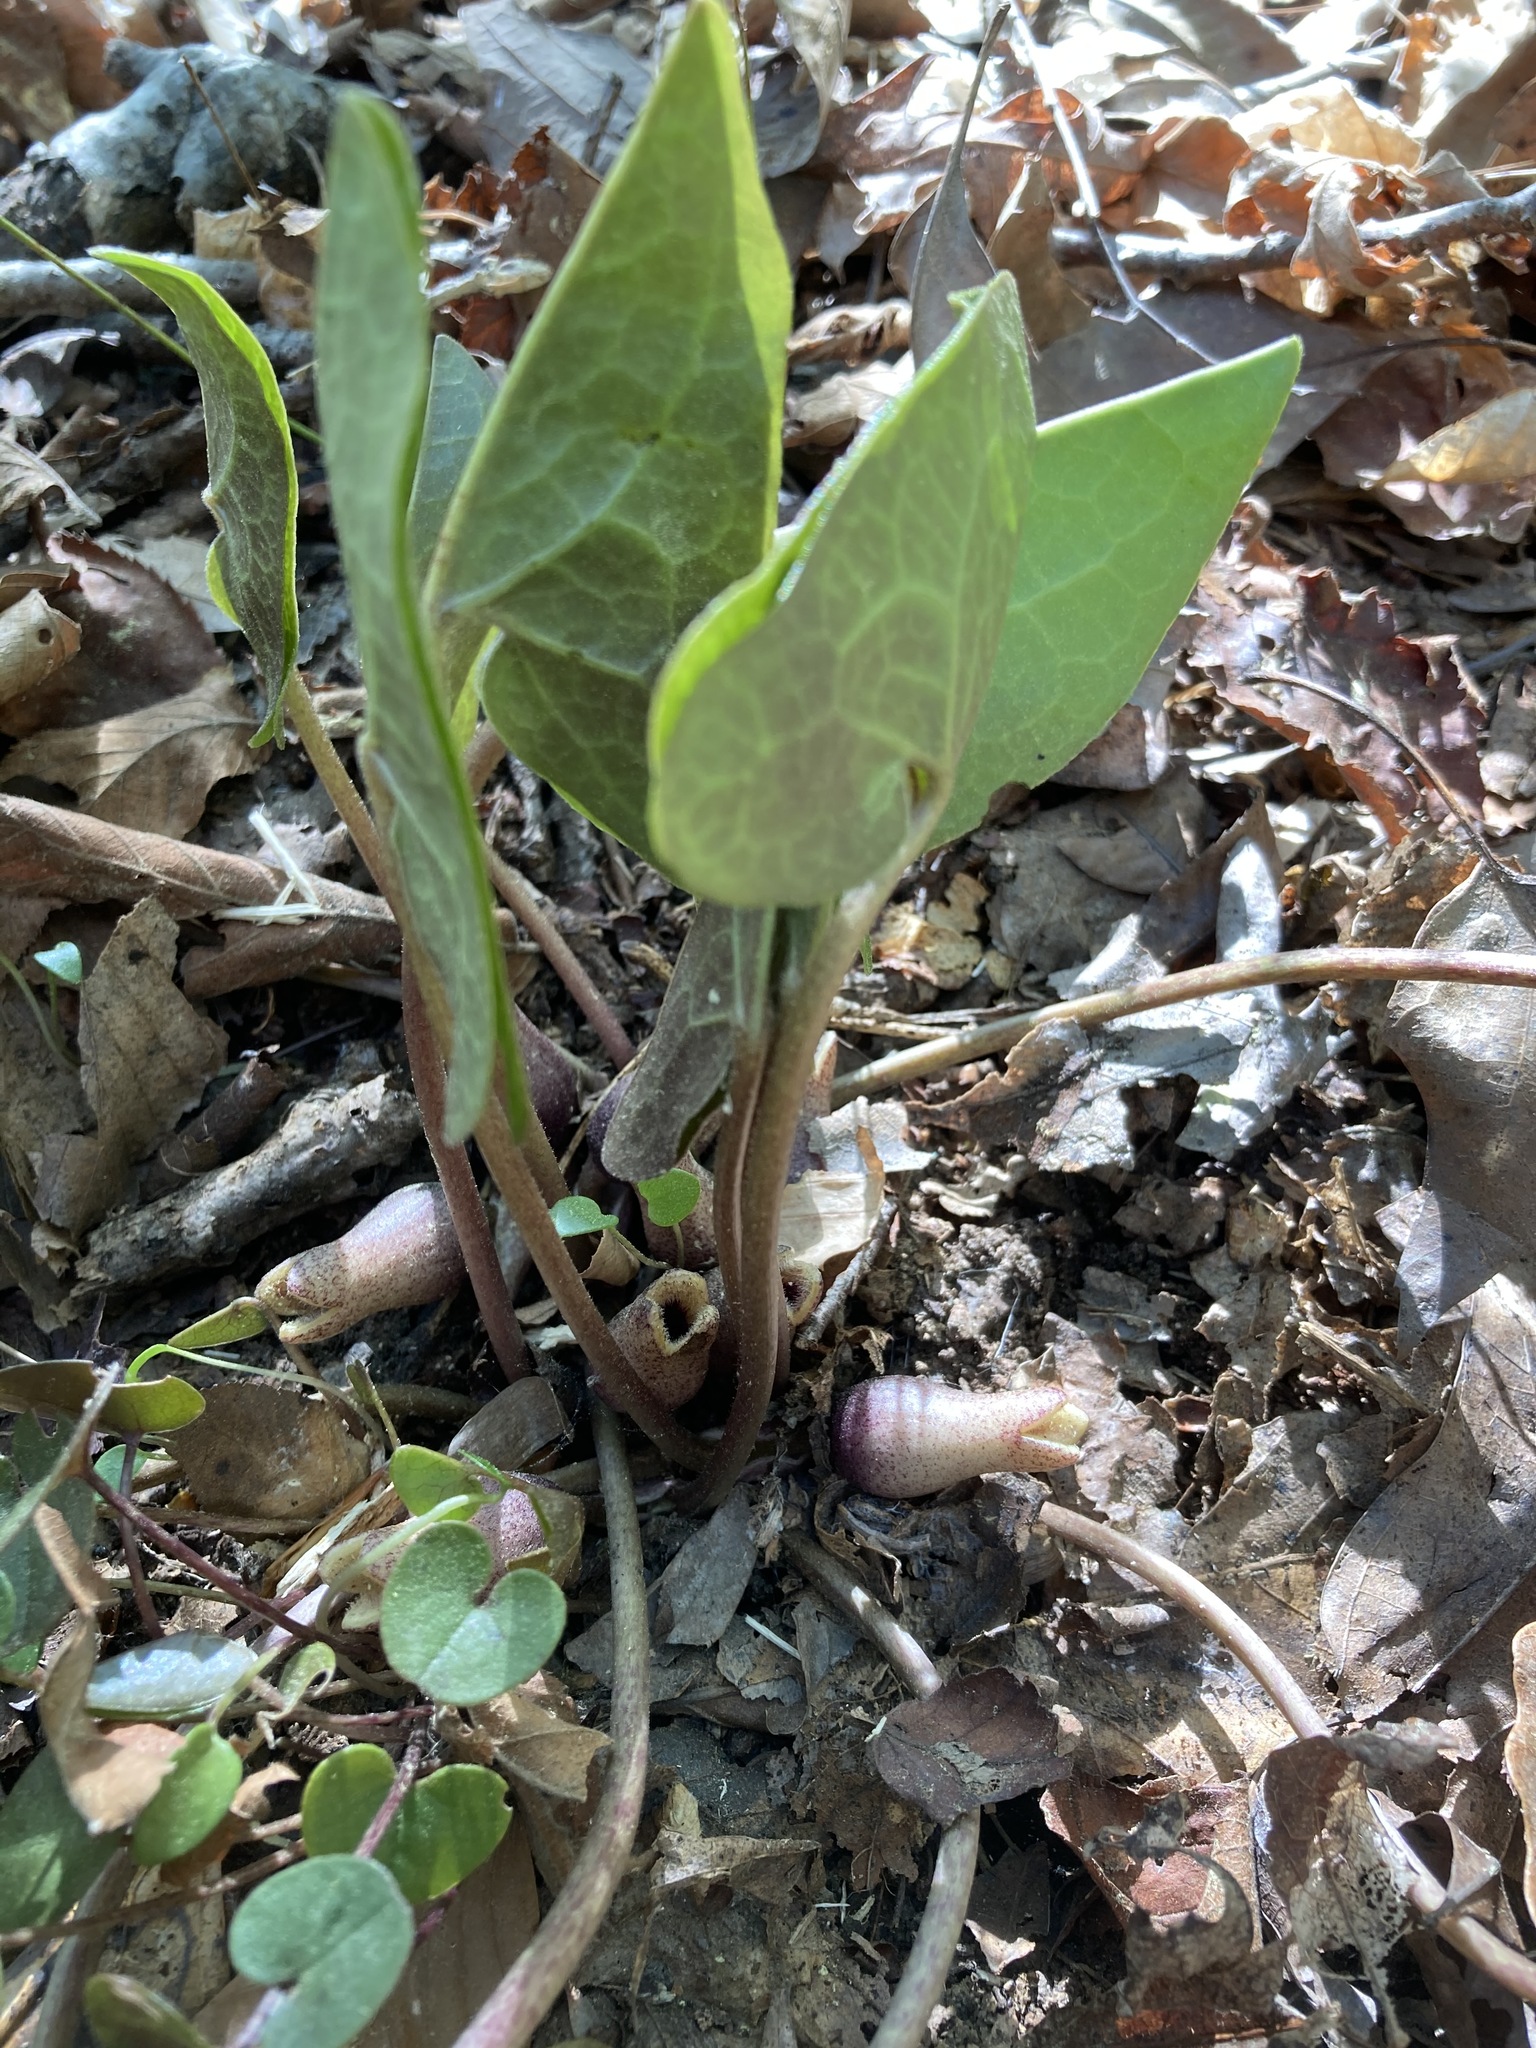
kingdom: Plantae
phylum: Tracheophyta
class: Magnoliopsida
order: Piperales
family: Aristolochiaceae
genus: Hexastylis
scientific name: Hexastylis arifolia
